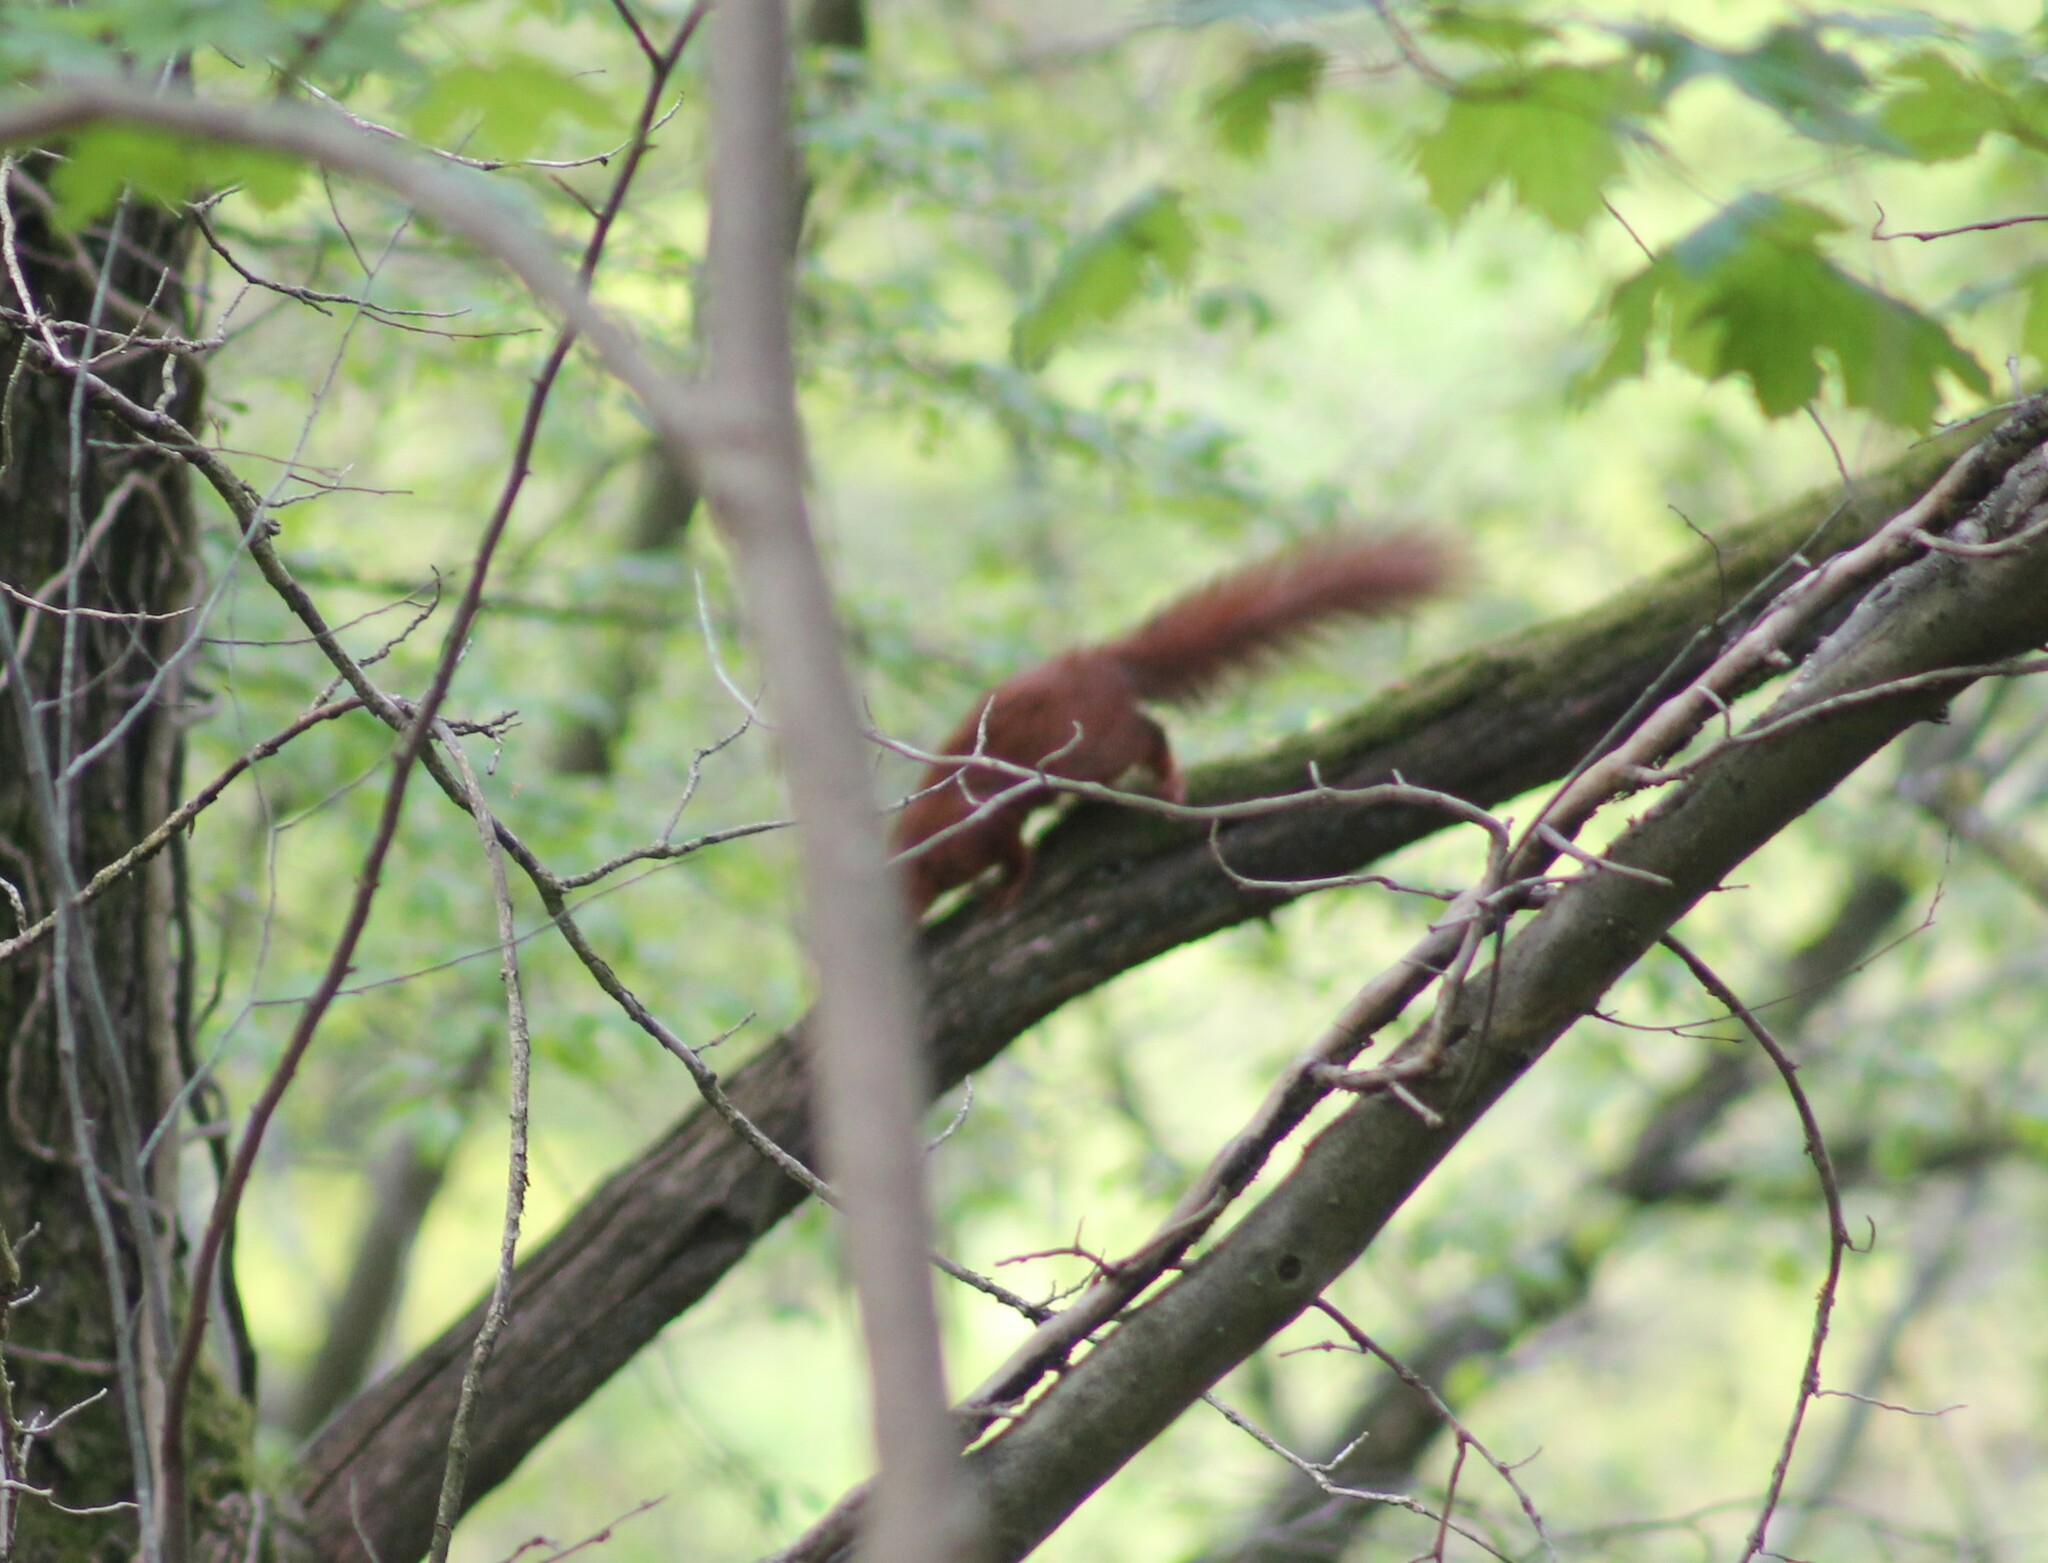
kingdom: Animalia
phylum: Chordata
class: Mammalia
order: Rodentia
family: Sciuridae
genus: Sciurus
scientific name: Sciurus vulgaris
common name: Eurasian red squirrel
